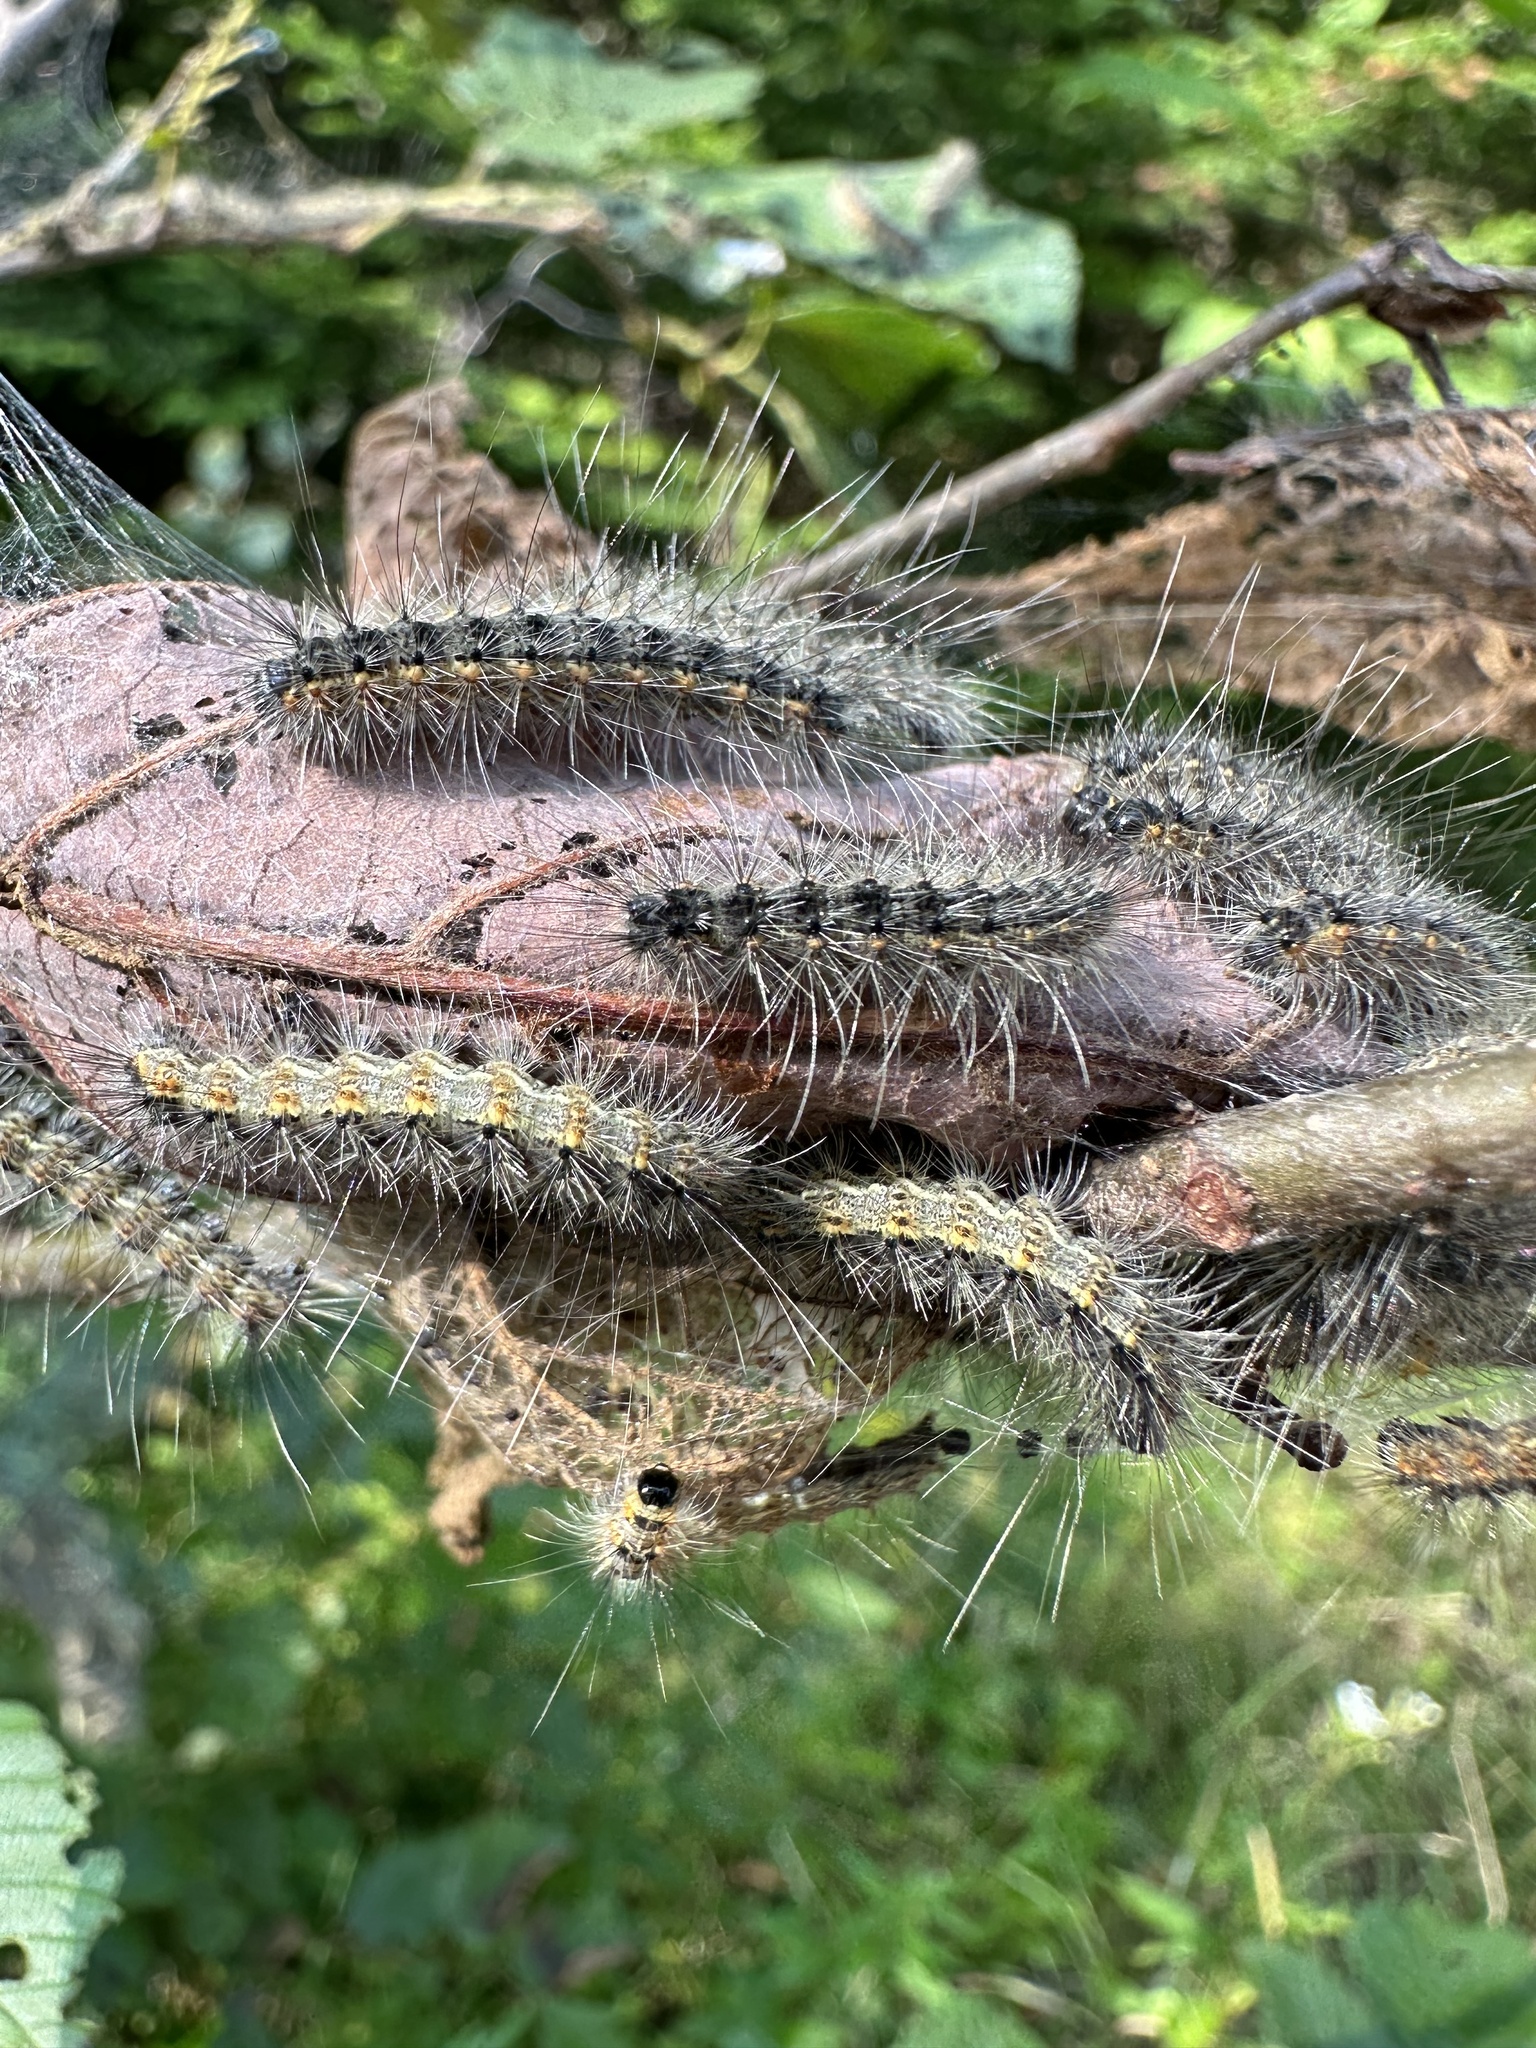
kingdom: Animalia
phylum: Arthropoda
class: Insecta
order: Lepidoptera
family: Erebidae
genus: Hyphantria
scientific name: Hyphantria cunea
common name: American white moth
